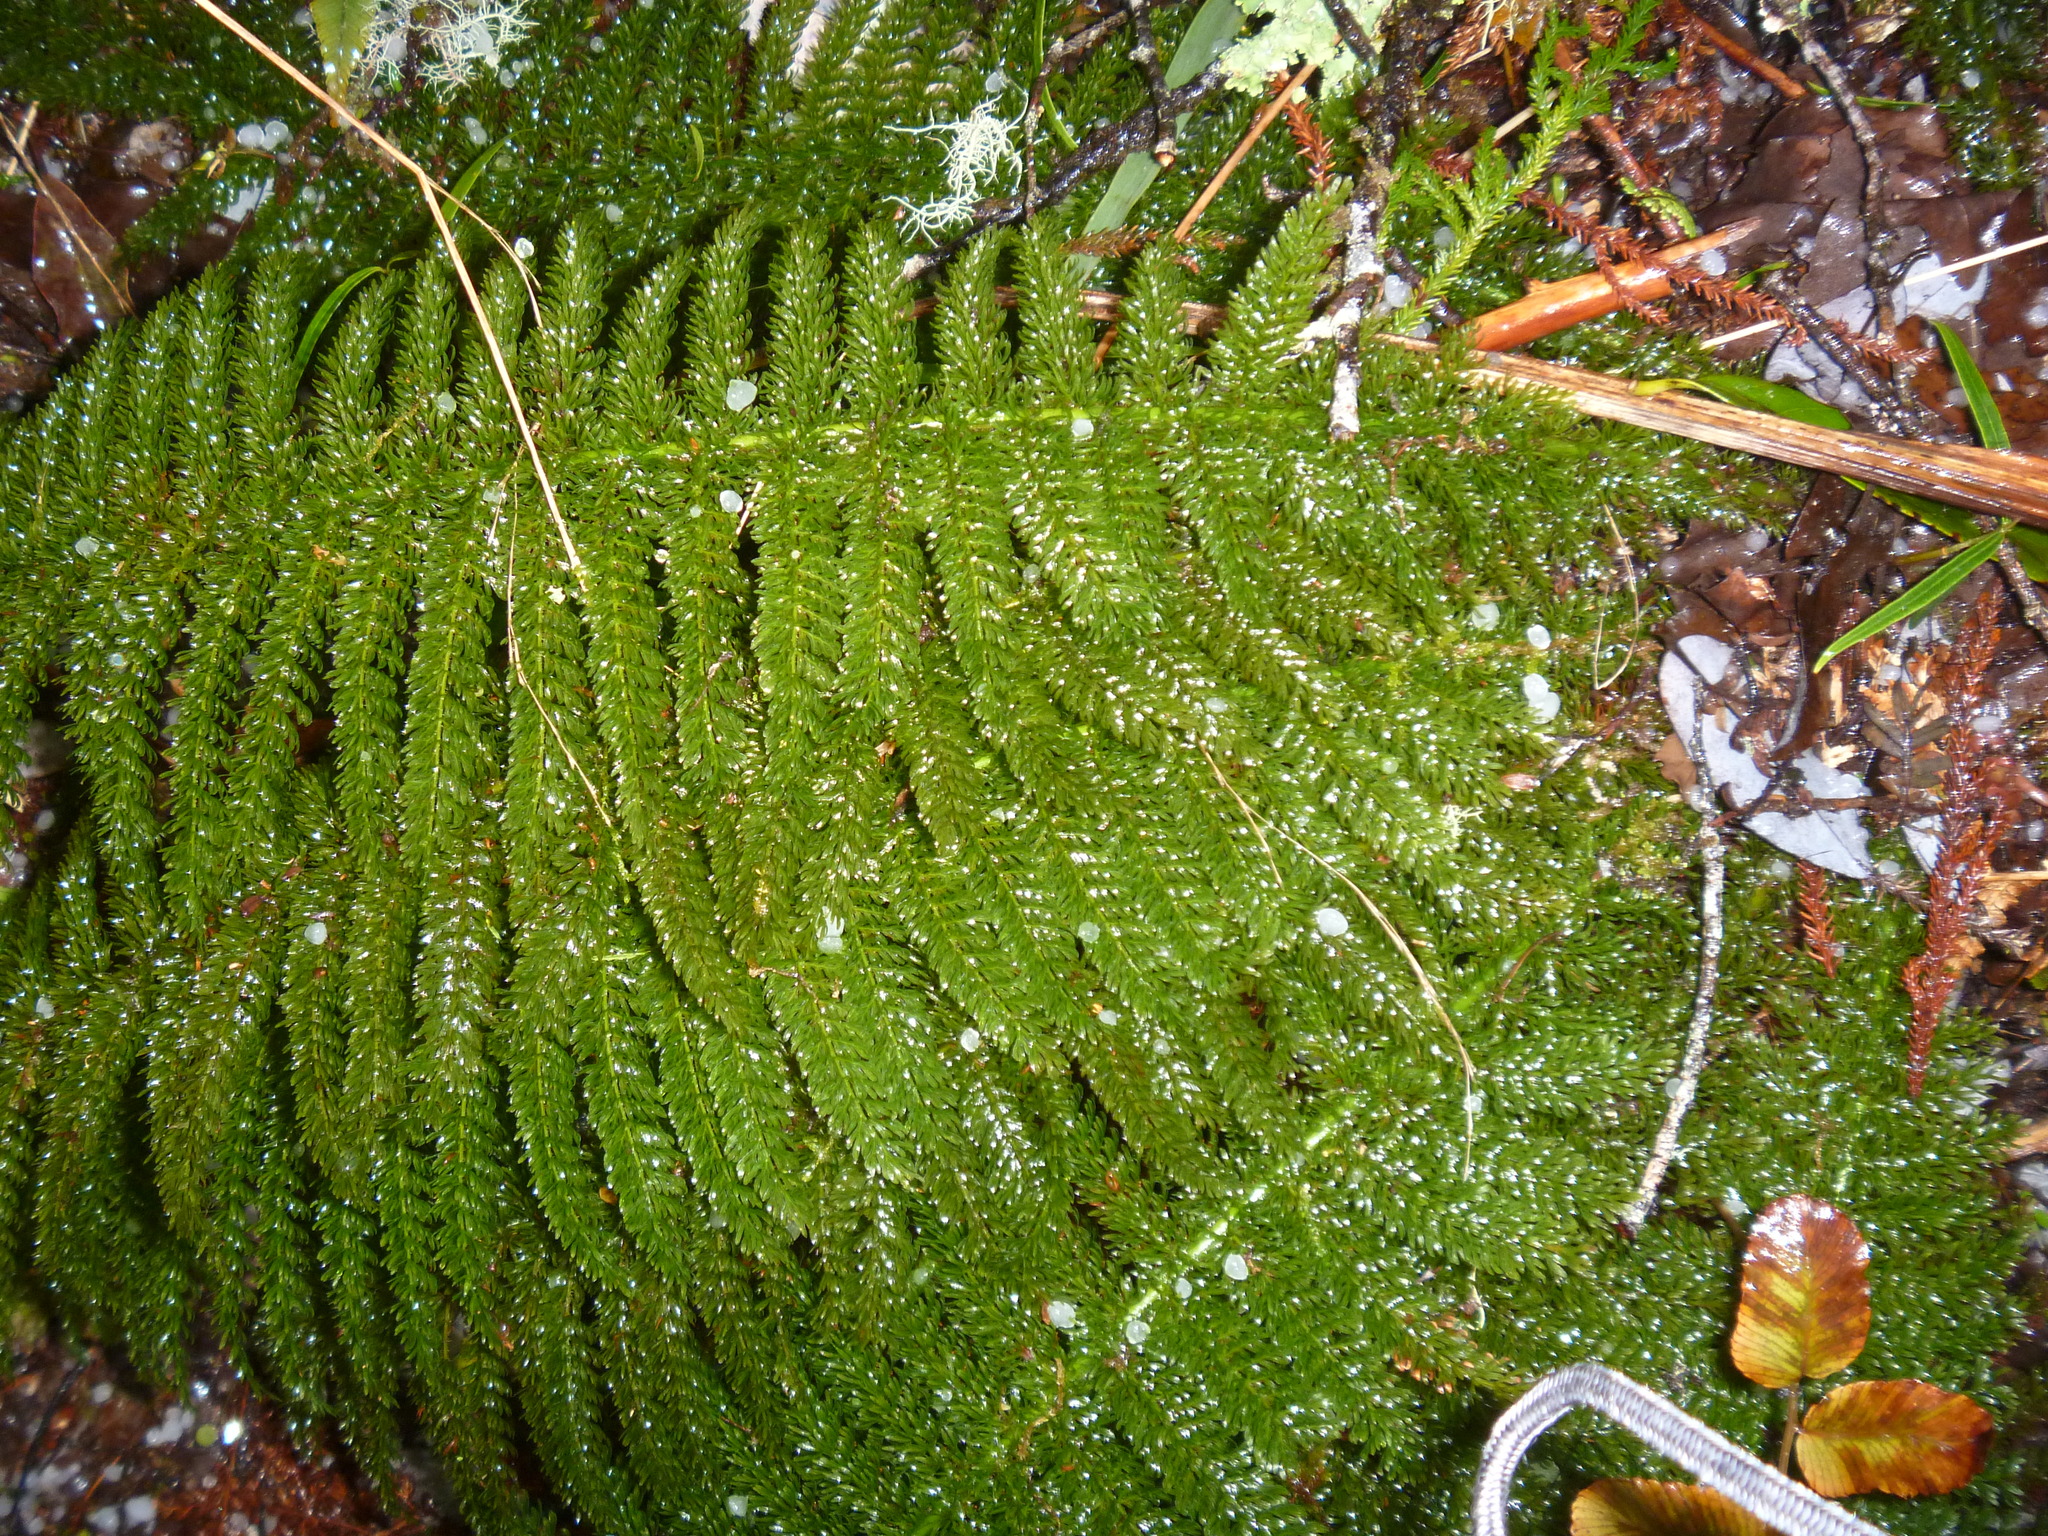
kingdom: Plantae
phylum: Tracheophyta
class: Polypodiopsida
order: Osmundales
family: Osmundaceae
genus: Leptopteris
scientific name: Leptopteris superba
